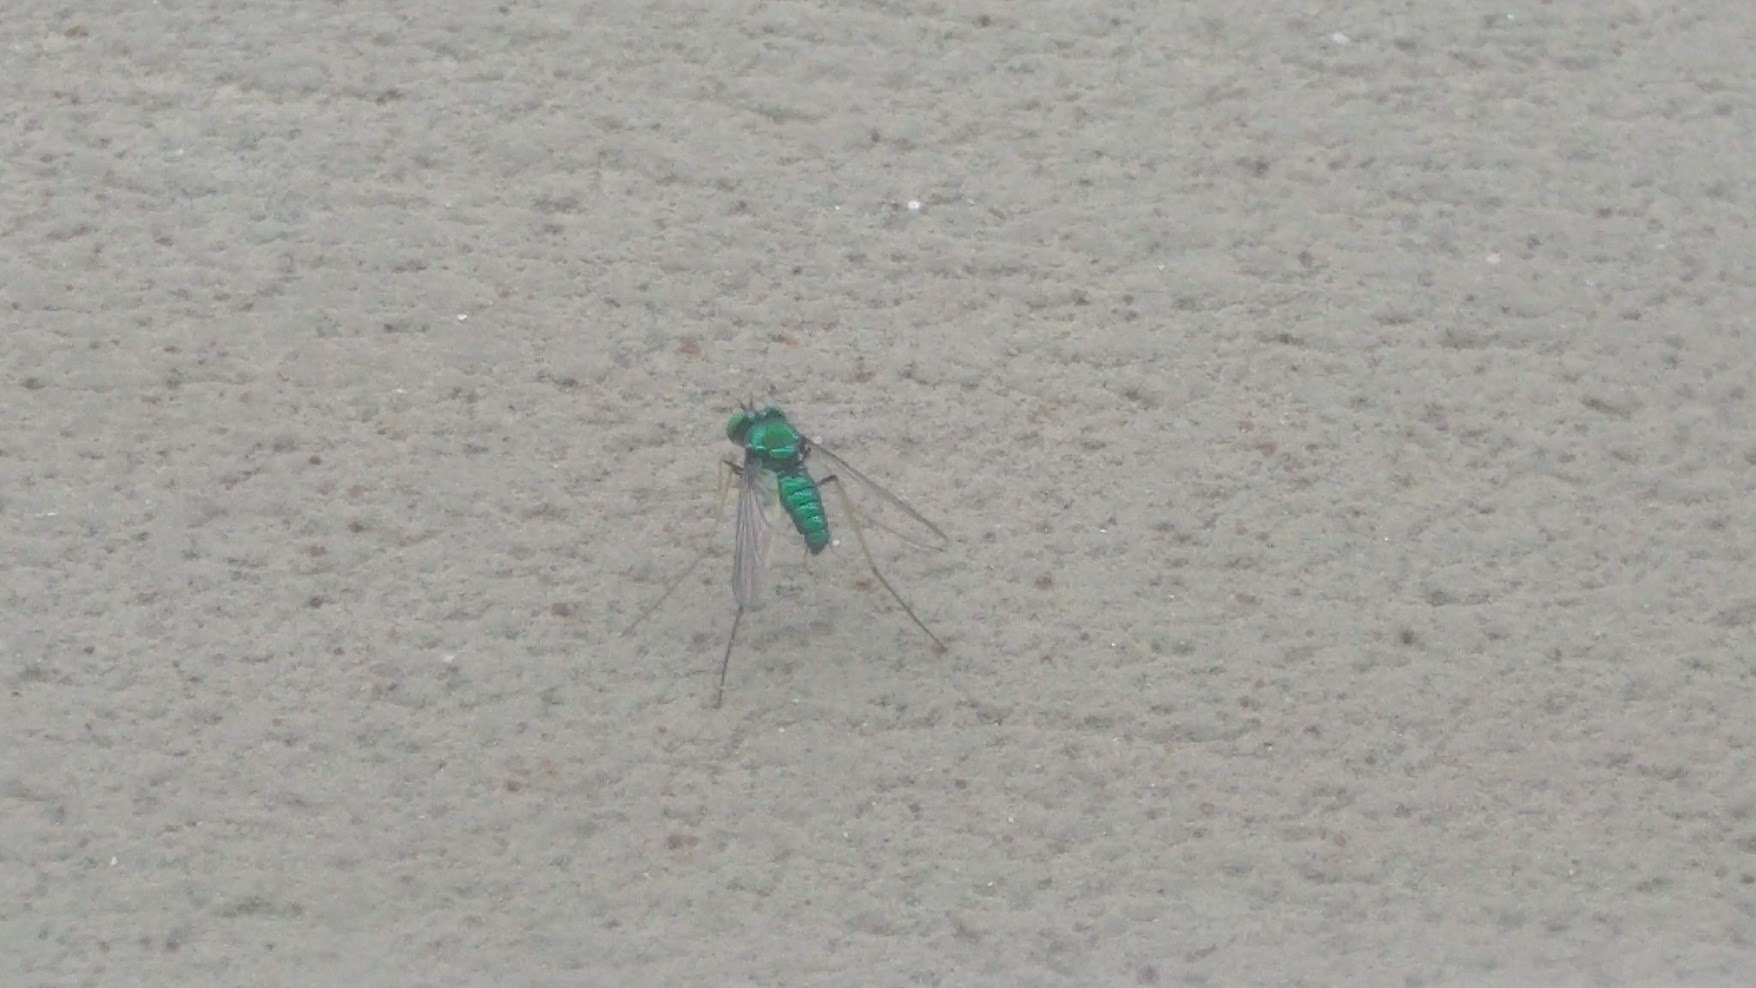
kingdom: Animalia
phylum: Arthropoda
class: Insecta
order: Diptera
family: Dolichopodidae
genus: Condylostylus
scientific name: Condylostylus comatus
